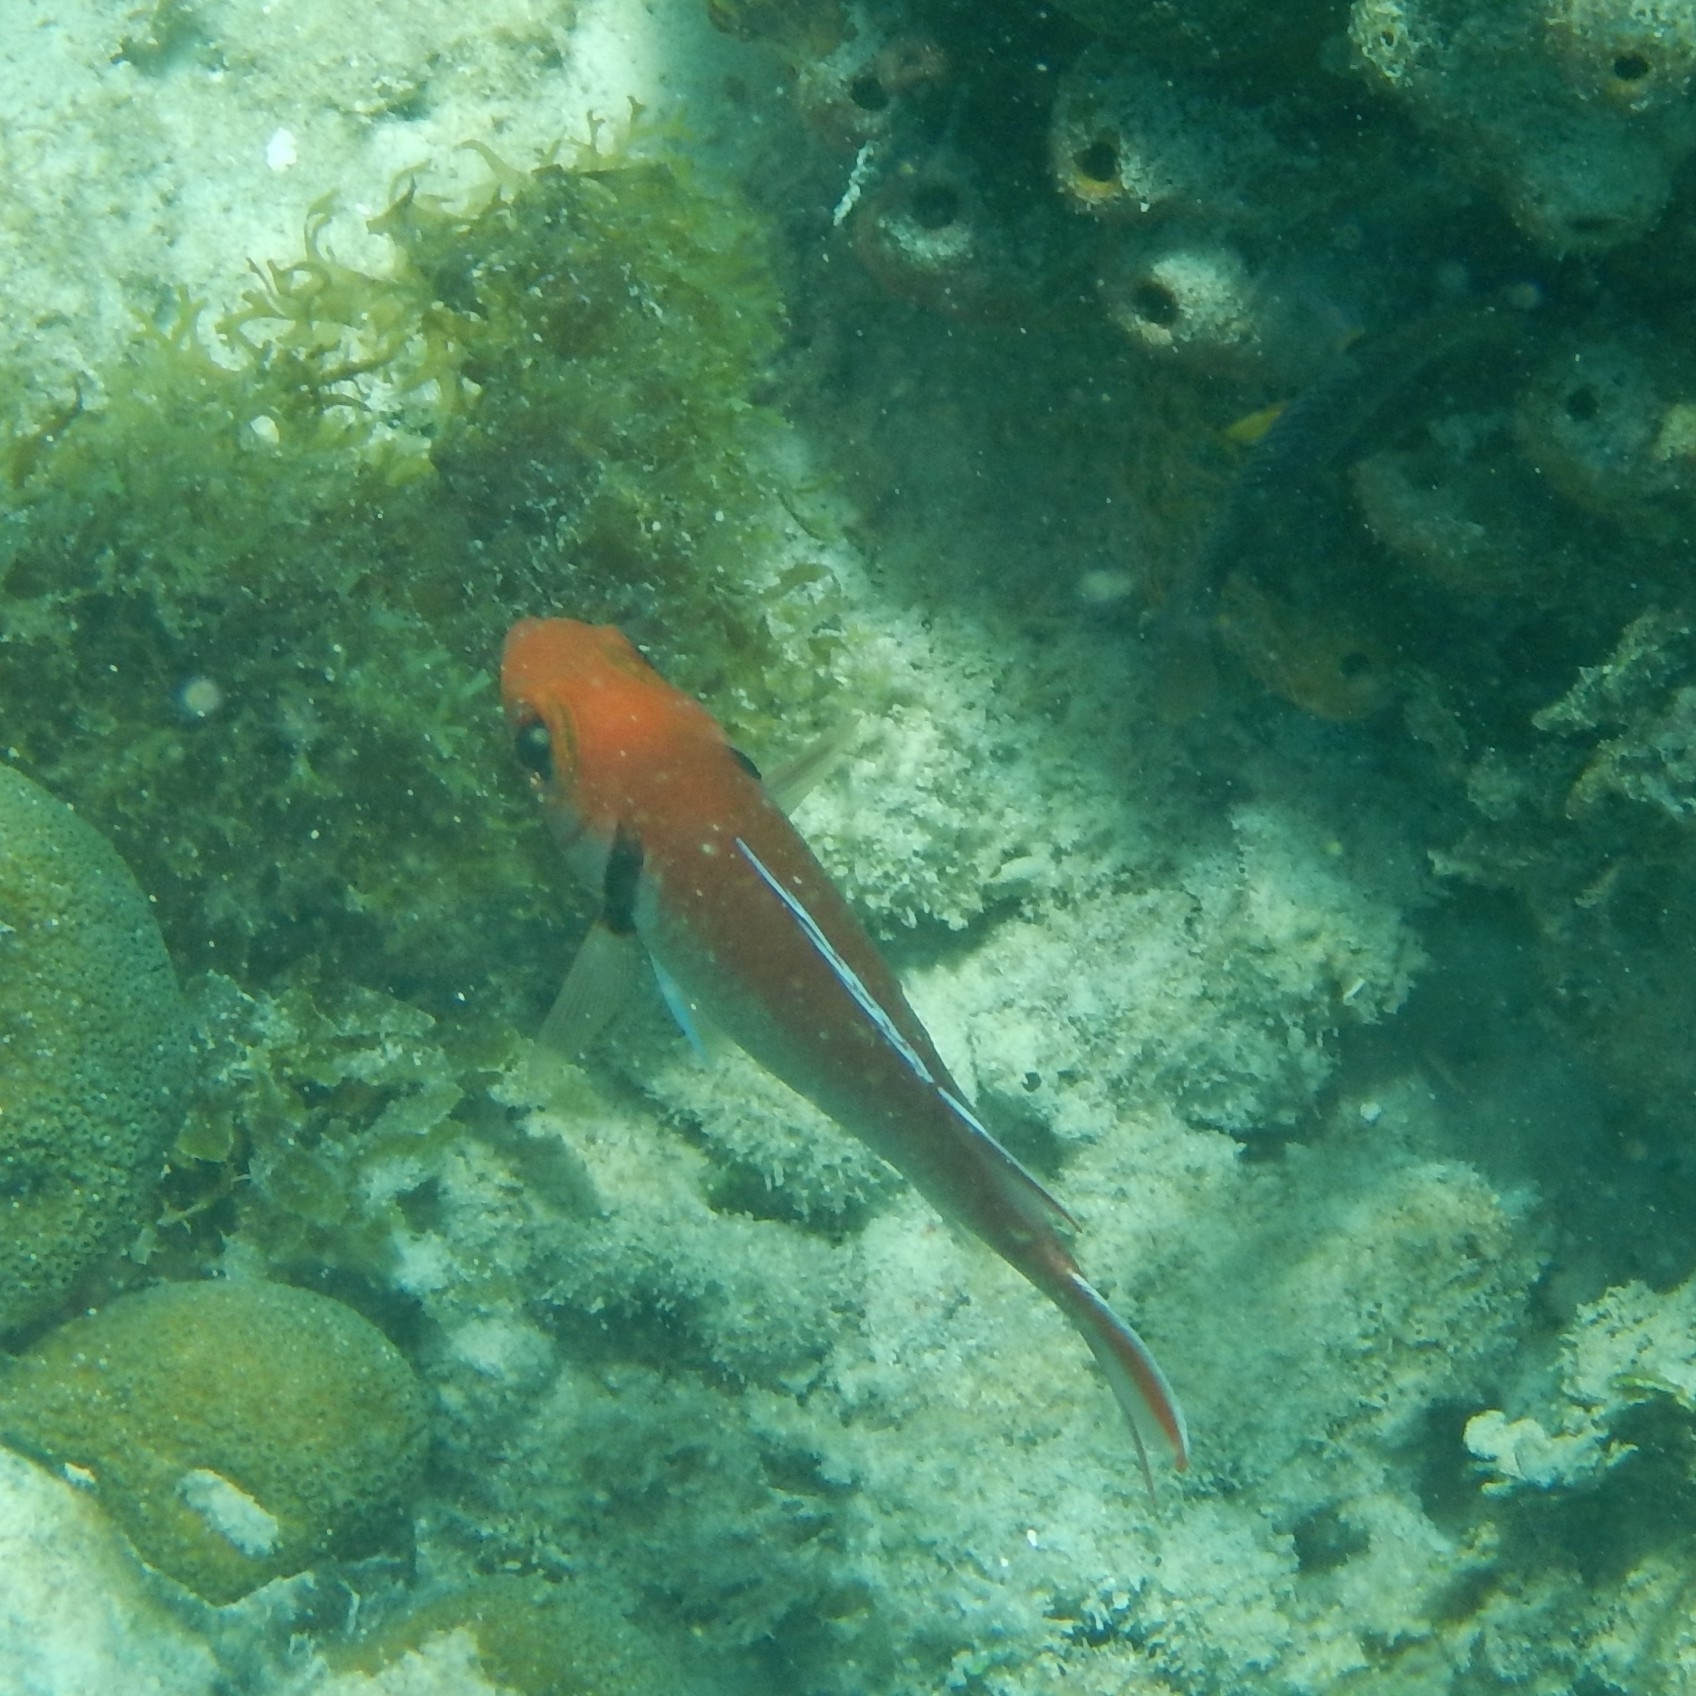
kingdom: Animalia
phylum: Chordata
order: Beryciformes
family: Holocentridae
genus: Myripristis
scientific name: Myripristis jacobus
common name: Blackbar soldierfish
